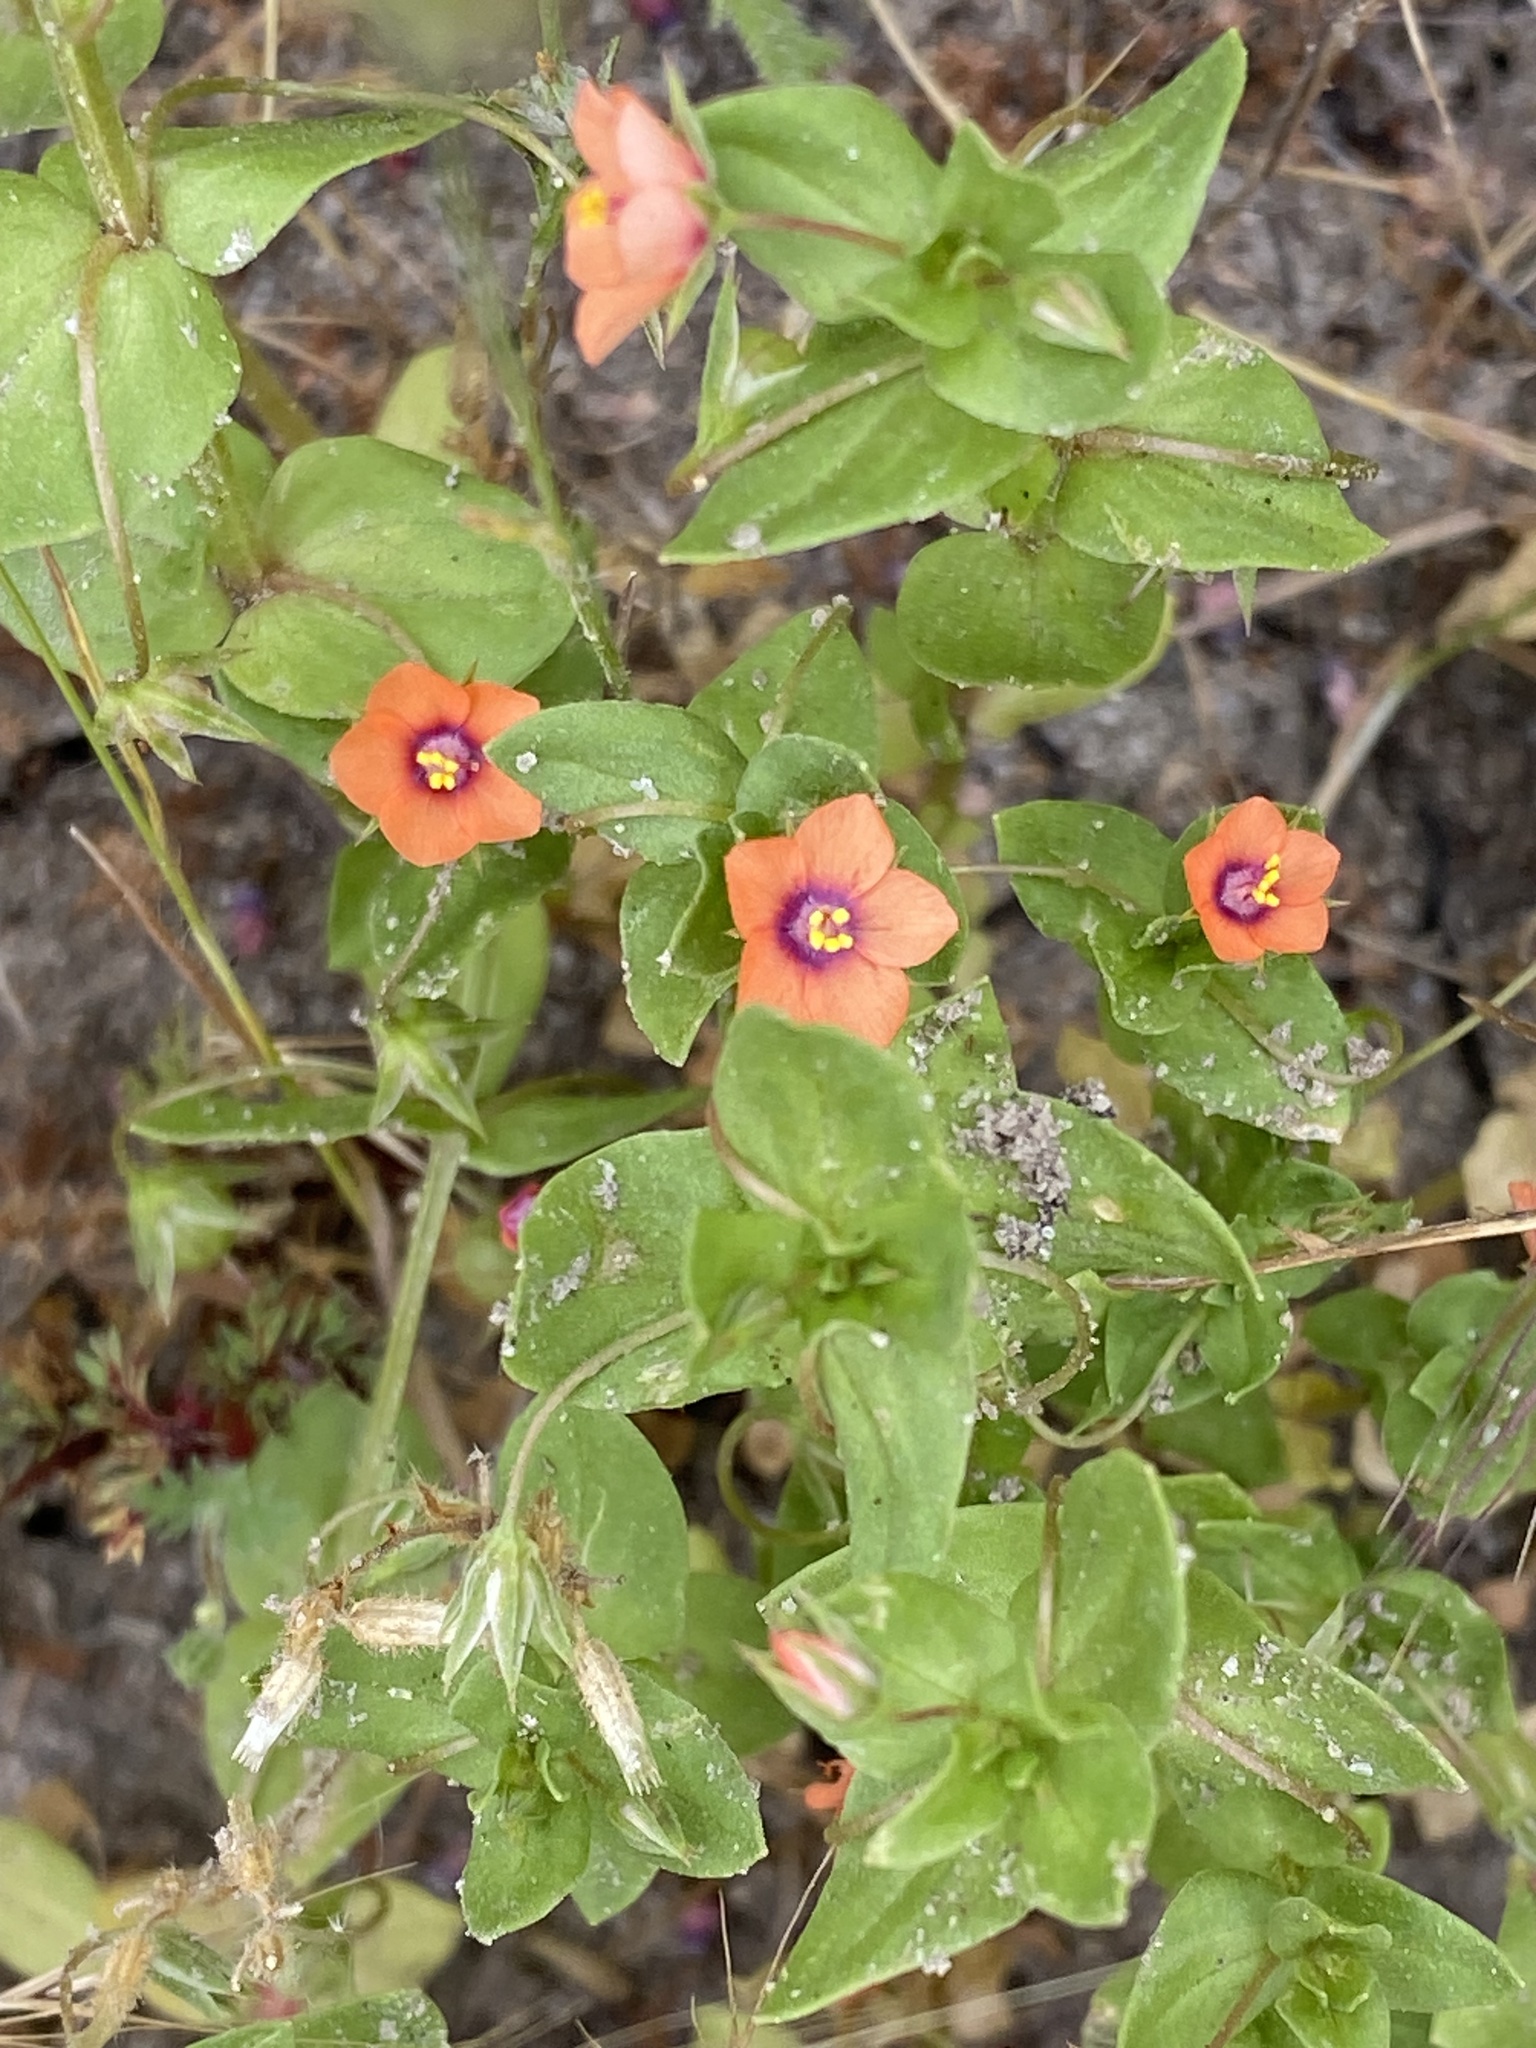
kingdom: Plantae
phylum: Tracheophyta
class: Magnoliopsida
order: Ericales
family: Primulaceae
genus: Lysimachia
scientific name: Lysimachia arvensis
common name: Scarlet pimpernel
